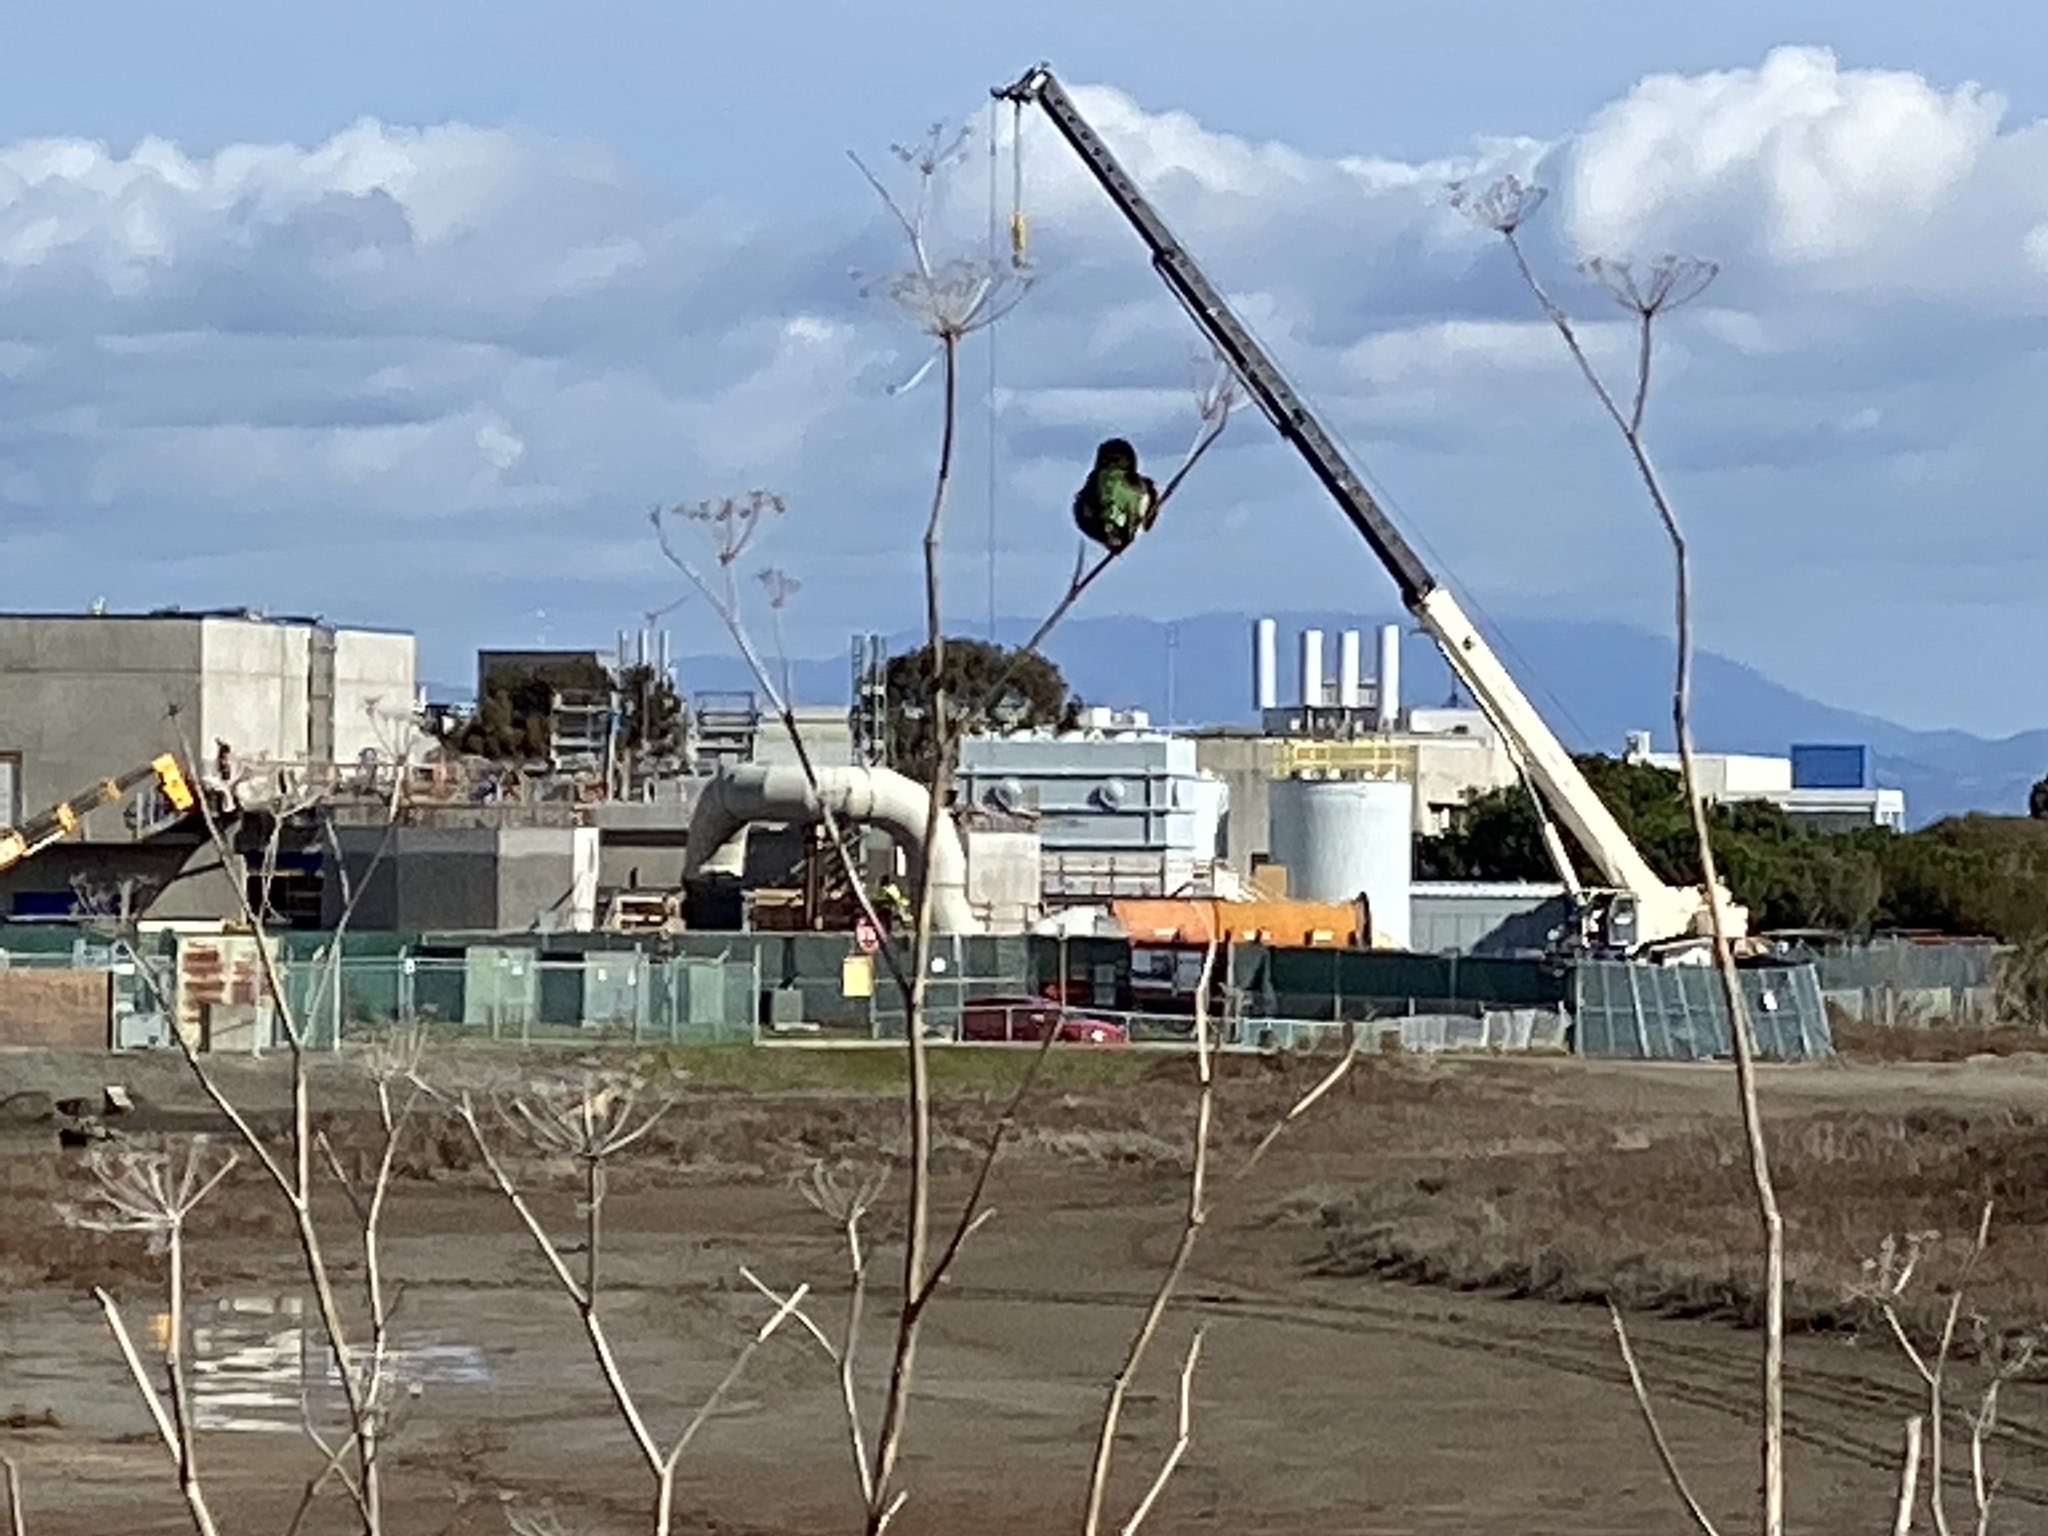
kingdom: Animalia
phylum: Chordata
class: Aves
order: Apodiformes
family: Trochilidae
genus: Calypte
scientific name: Calypte anna
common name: Anna's hummingbird
